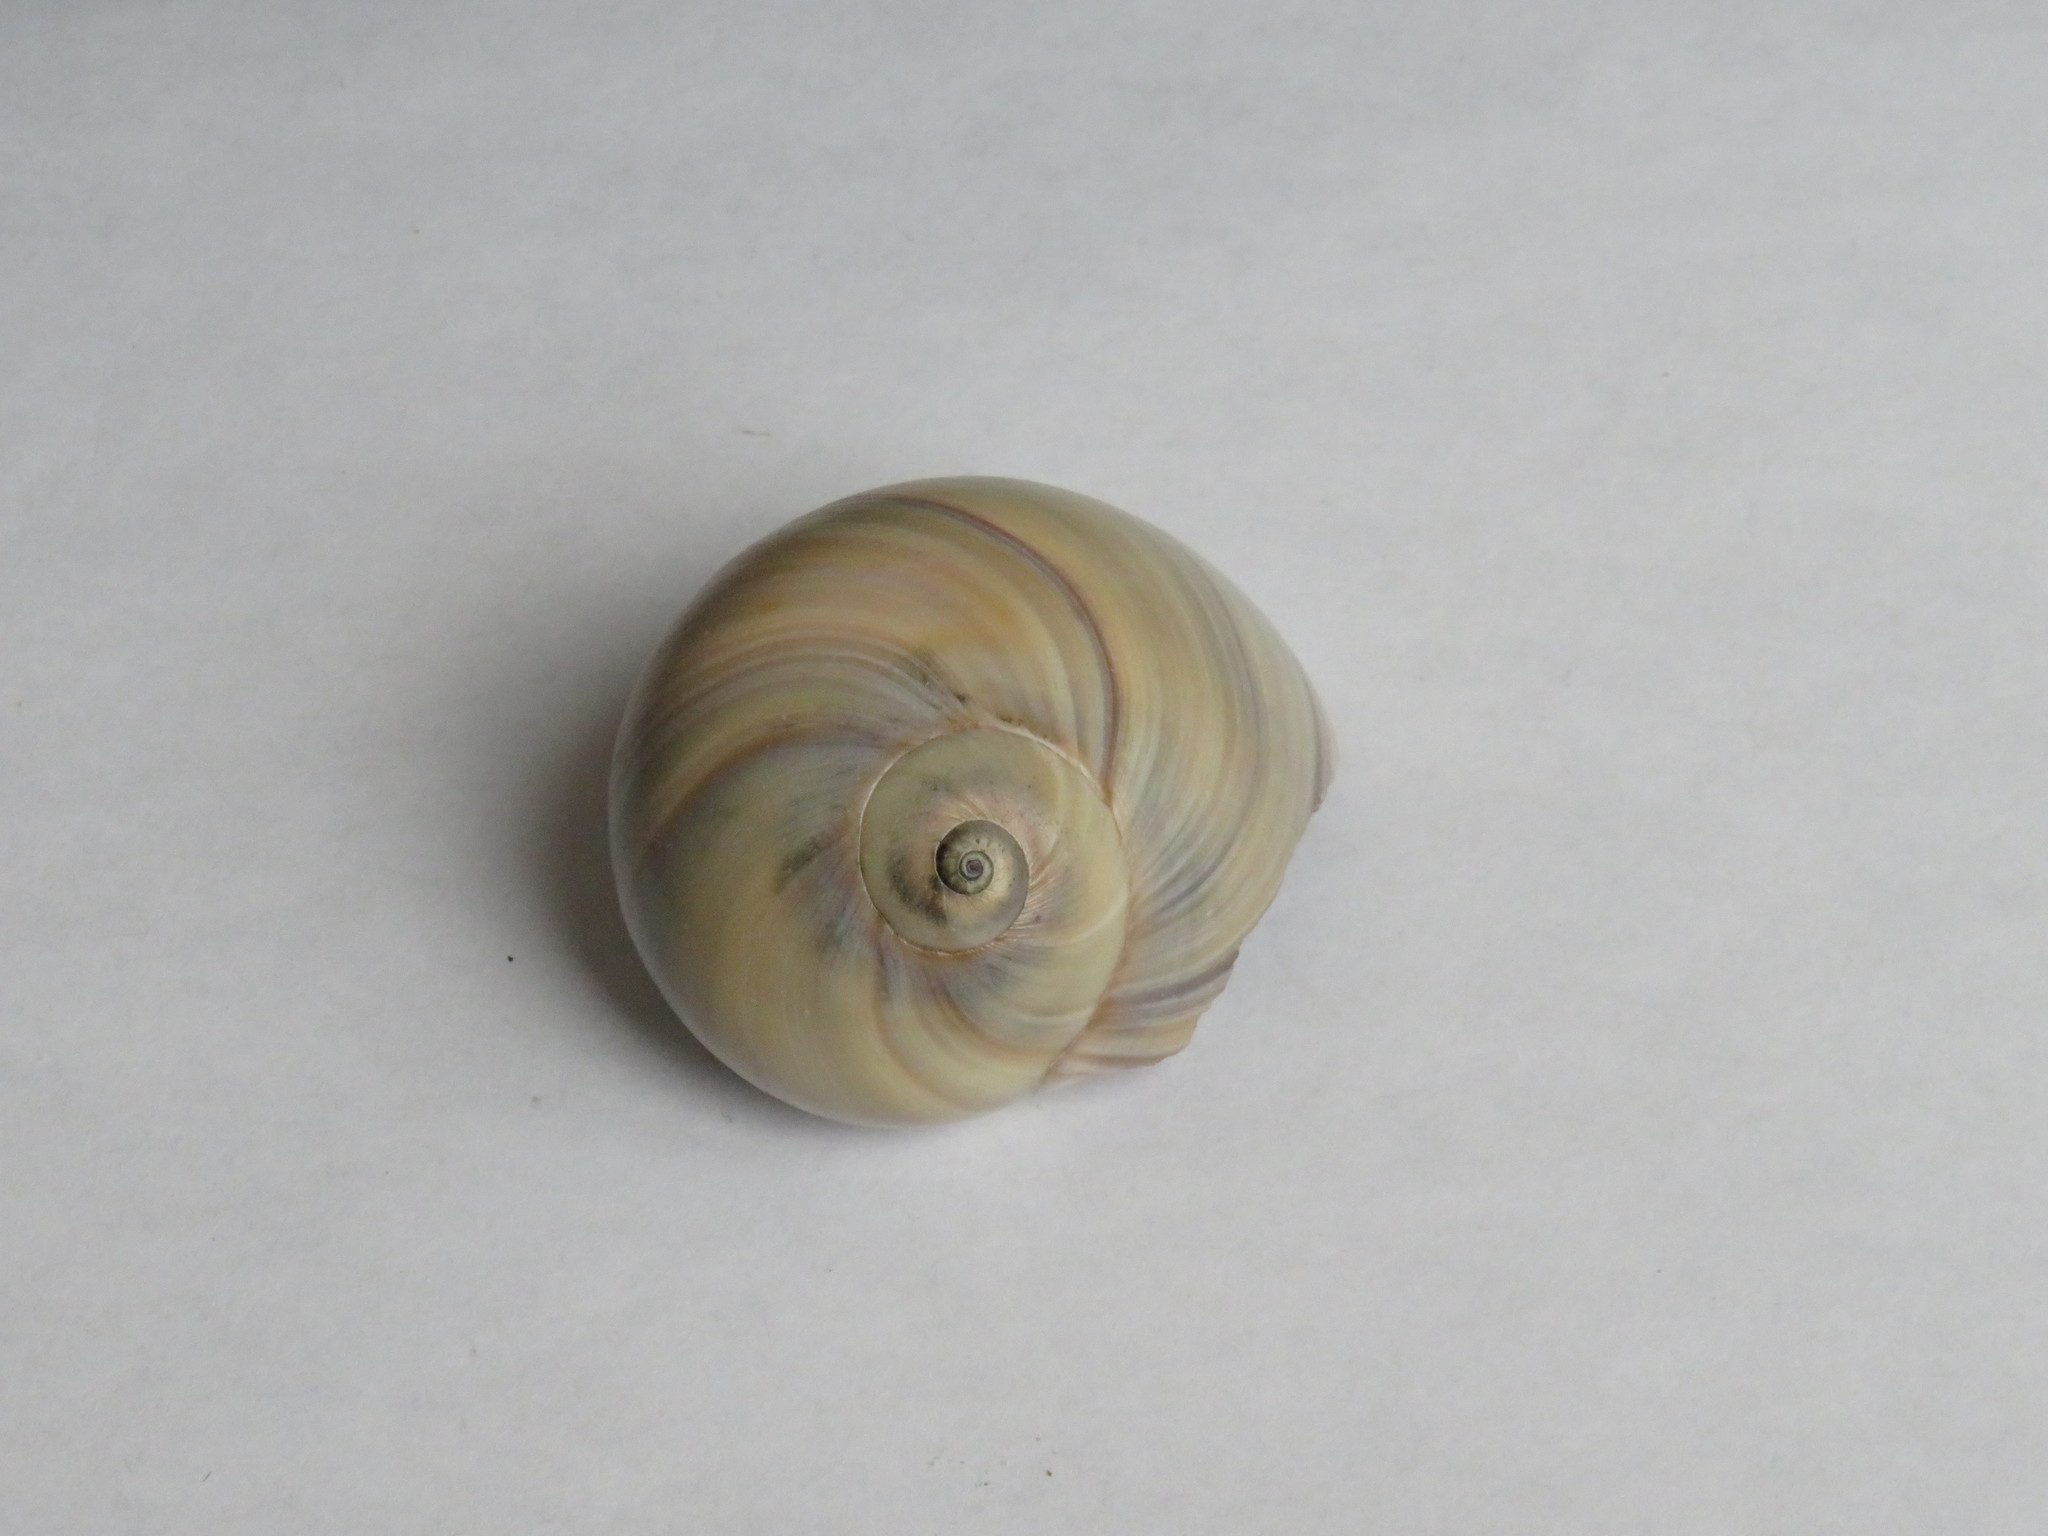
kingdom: Animalia
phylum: Mollusca
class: Gastropoda
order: Littorinimorpha
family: Naticidae
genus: Neverita
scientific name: Neverita duplicata
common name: Lobed moonsnail
